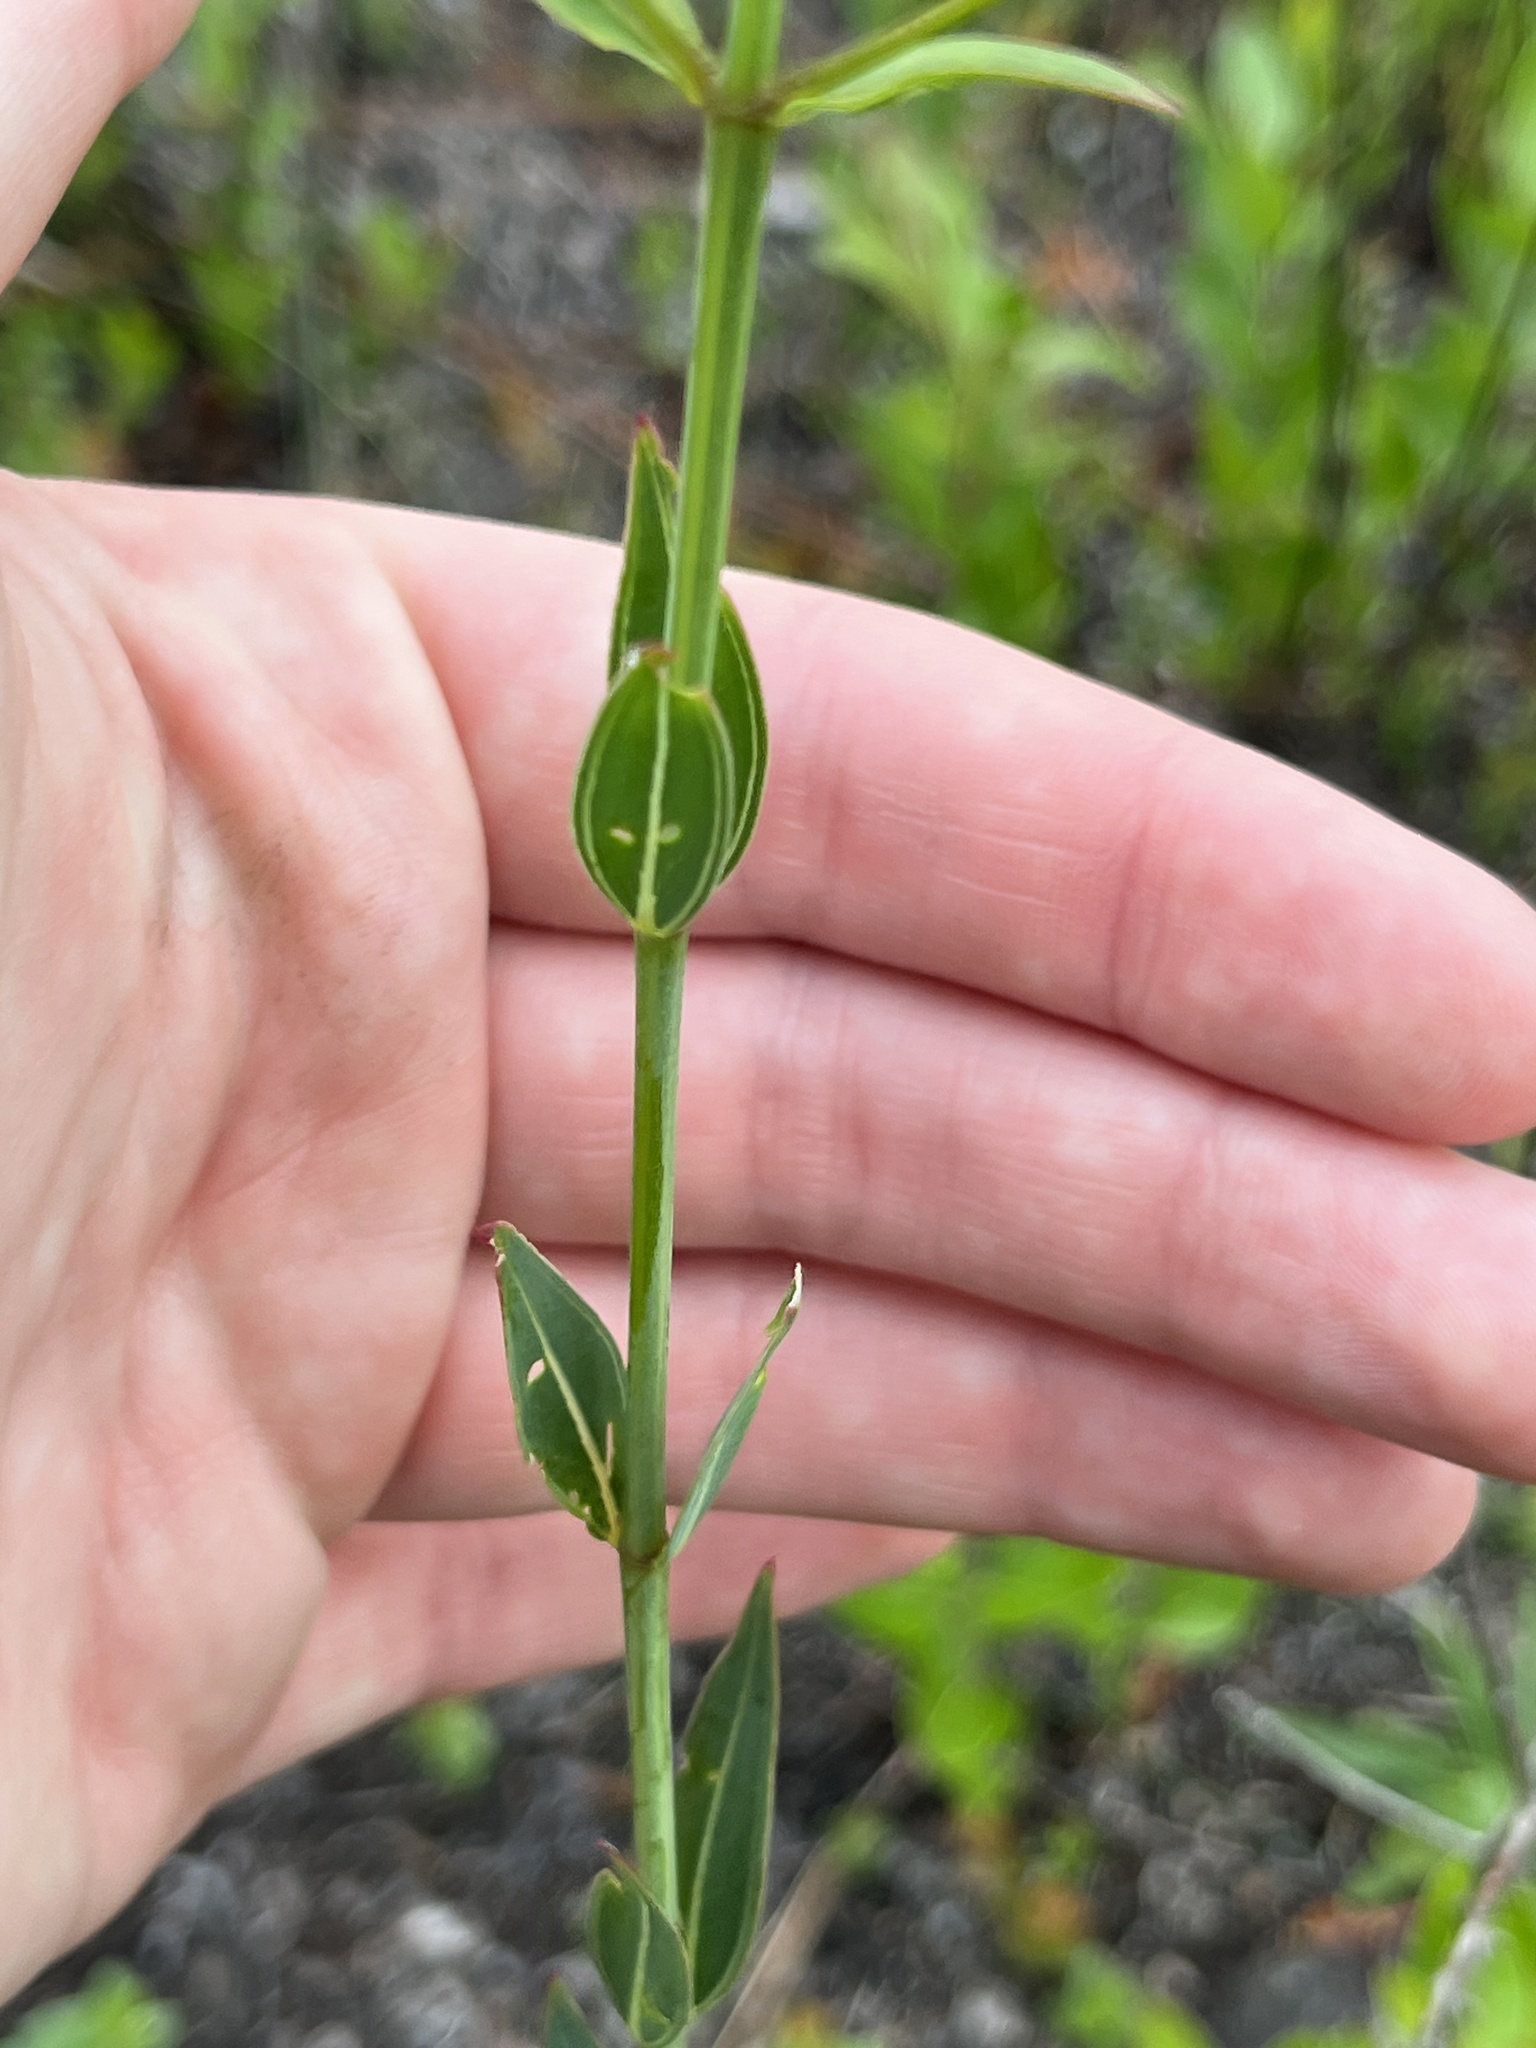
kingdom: Plantae
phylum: Tracheophyta
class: Magnoliopsida
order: Myrtales
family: Melastomataceae
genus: Rhexia
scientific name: Rhexia alifanus
